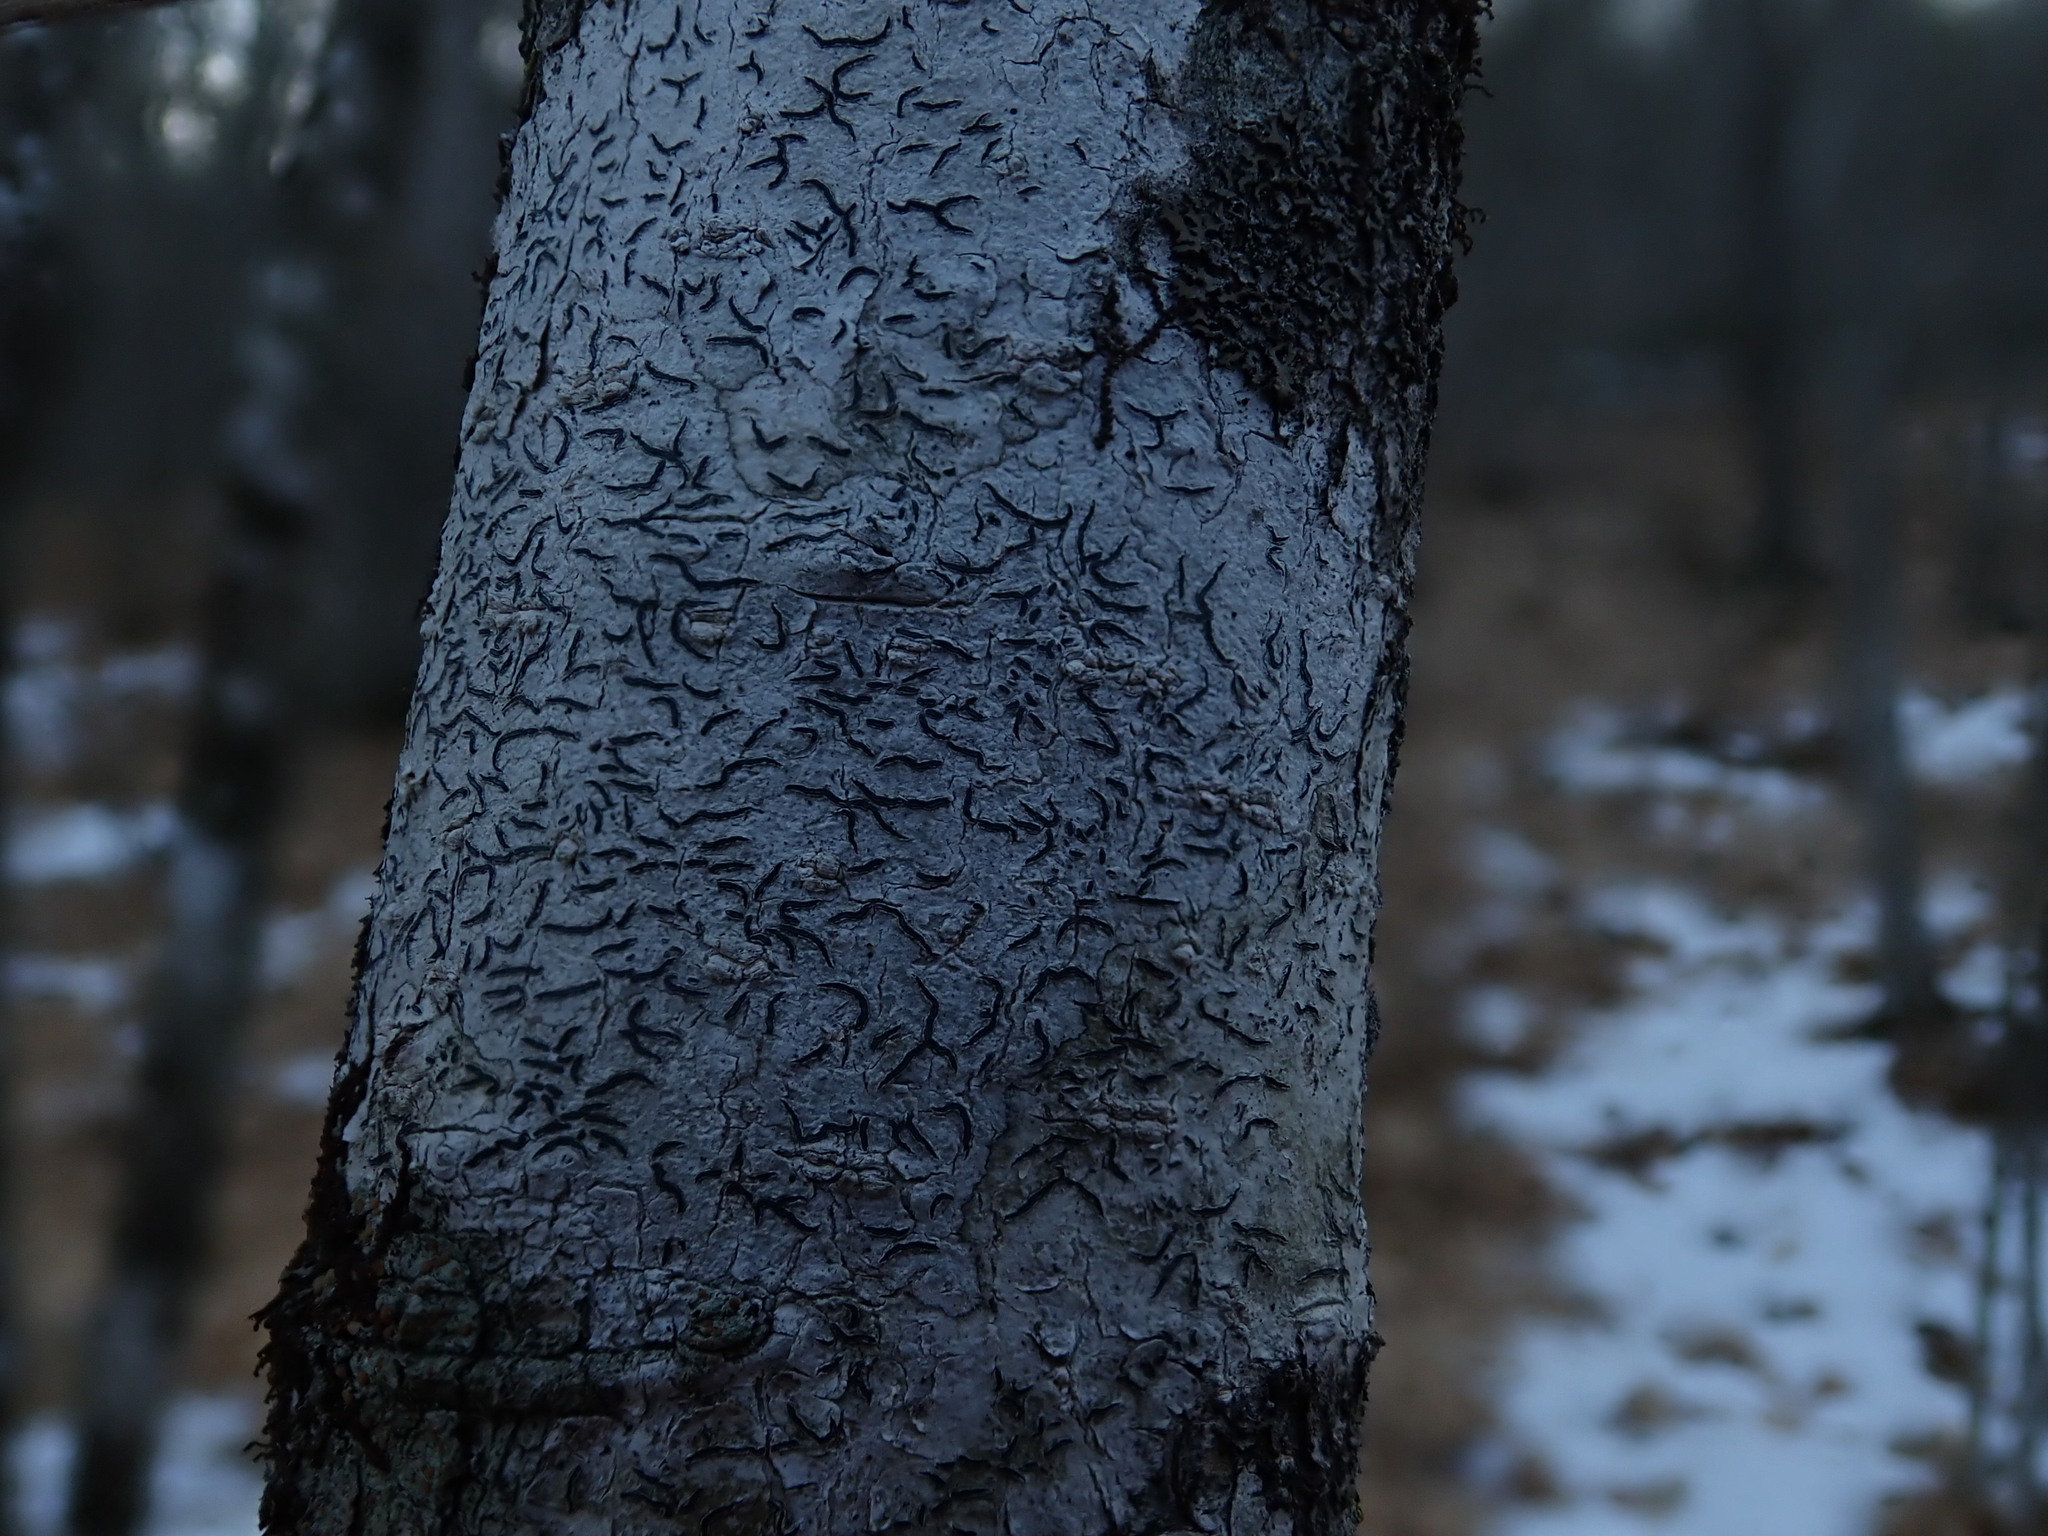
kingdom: Fungi
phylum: Ascomycota
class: Lecanoromycetes
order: Ostropales
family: Graphidaceae
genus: Graphis
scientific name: Graphis scripta
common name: Script lichen
